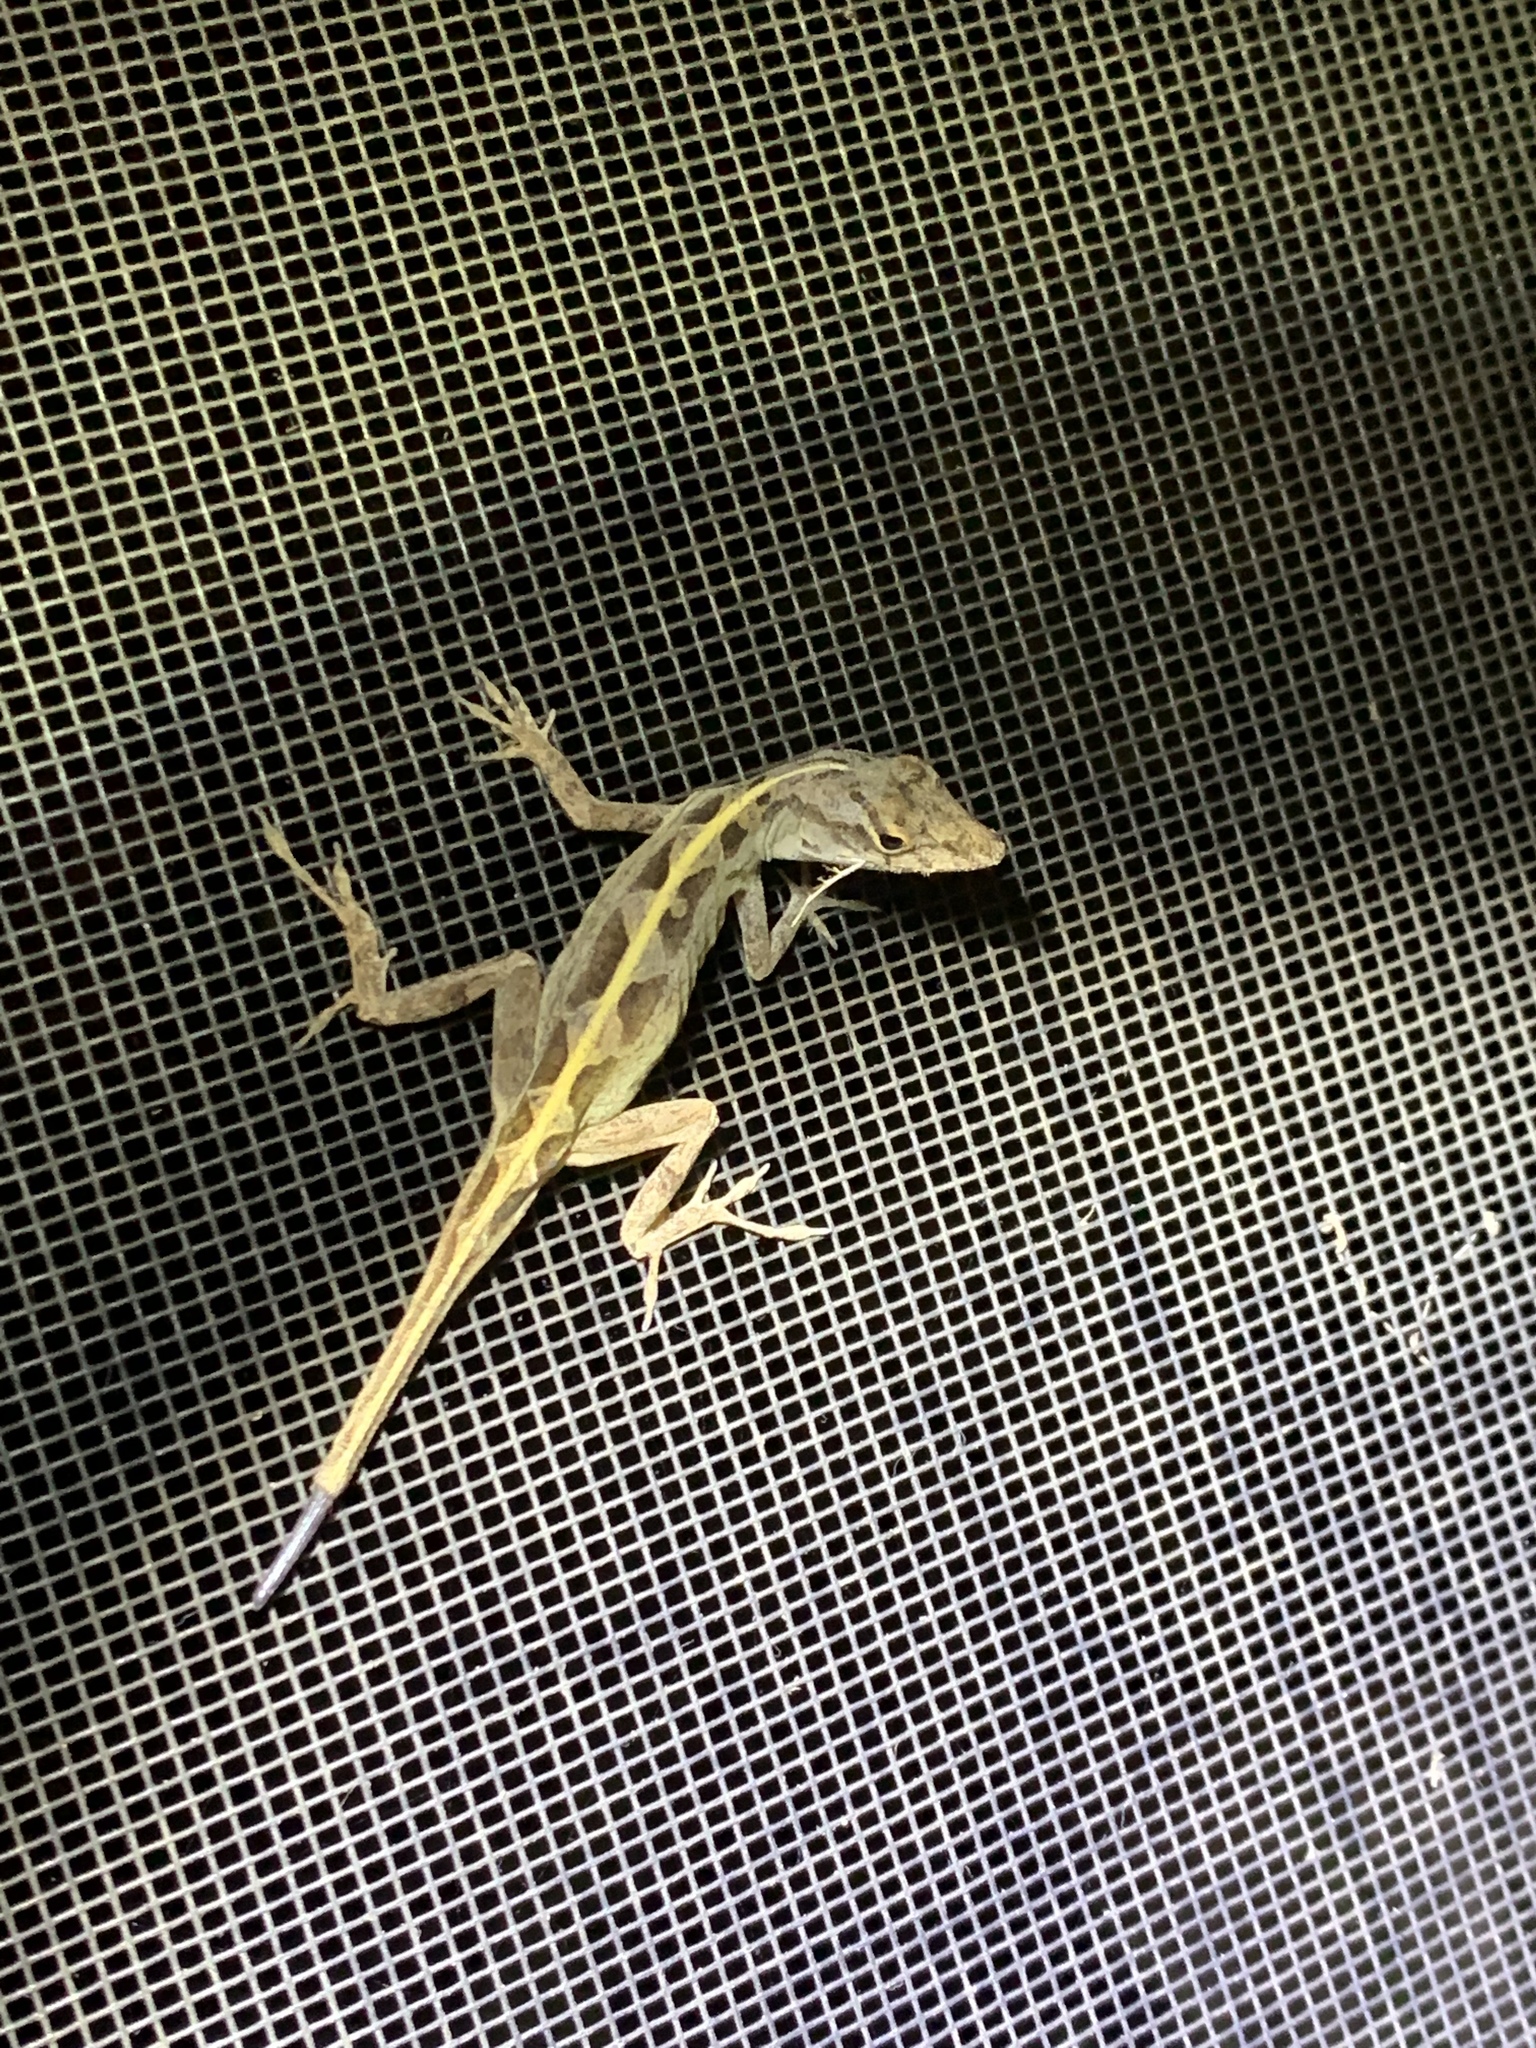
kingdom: Animalia
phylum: Chordata
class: Squamata
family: Dactyloidae
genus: Anolis
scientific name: Anolis sagrei
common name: Brown anole
